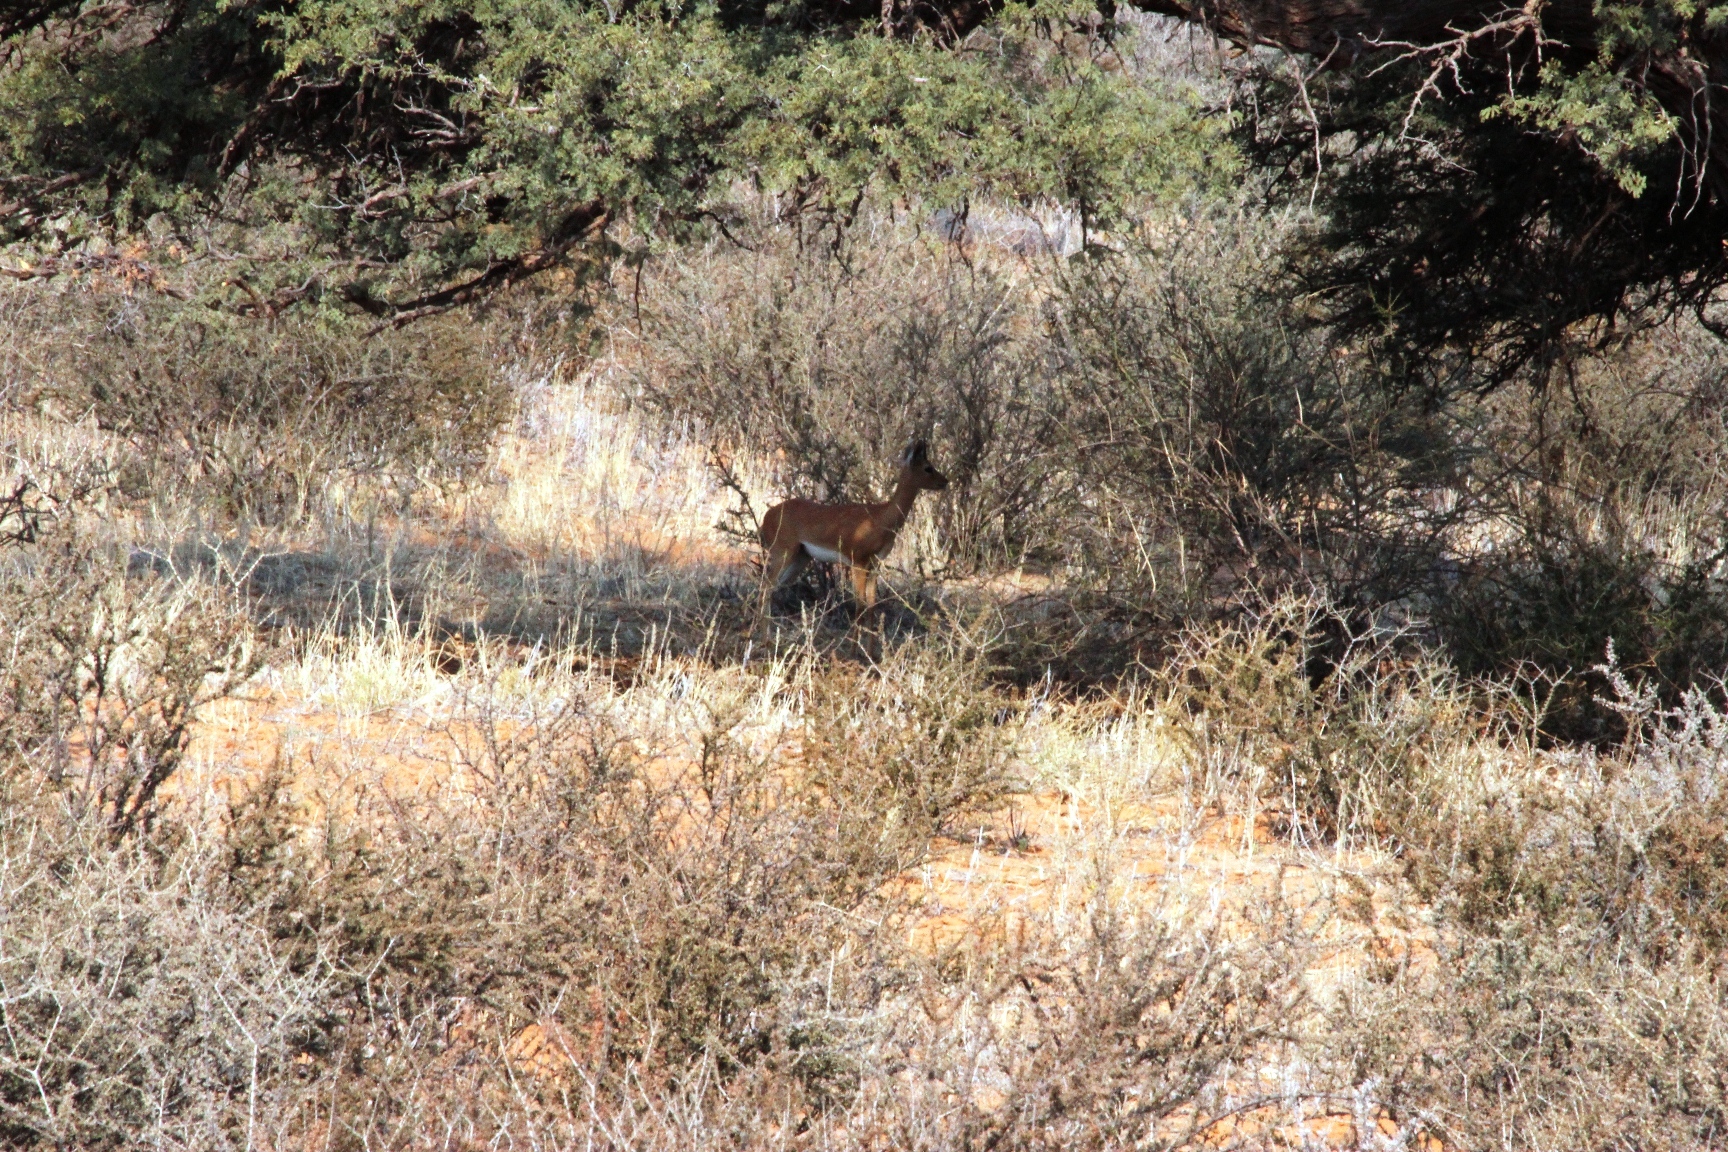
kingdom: Animalia
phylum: Chordata
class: Mammalia
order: Artiodactyla
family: Bovidae
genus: Raphicerus
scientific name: Raphicerus campestris
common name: Steenbok
